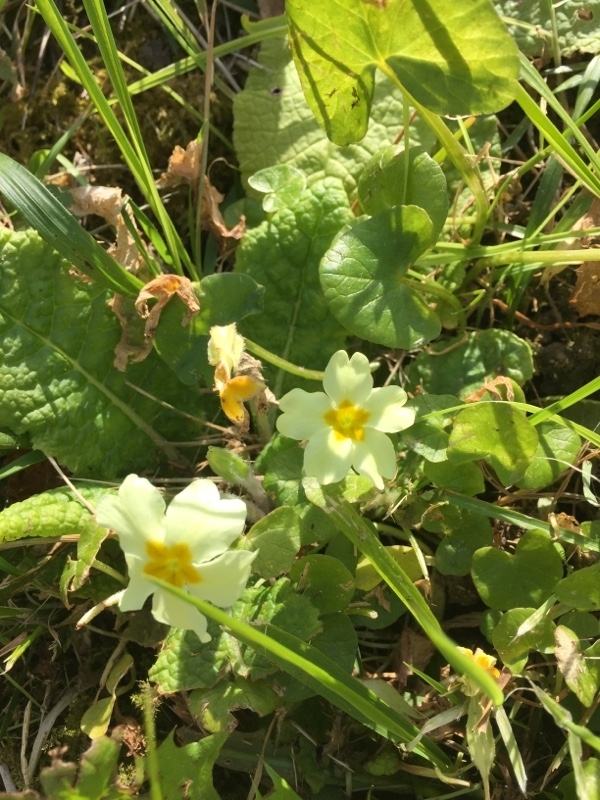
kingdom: Plantae
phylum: Tracheophyta
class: Magnoliopsida
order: Ericales
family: Primulaceae
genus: Primula
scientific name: Primula vulgaris
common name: Primrose
